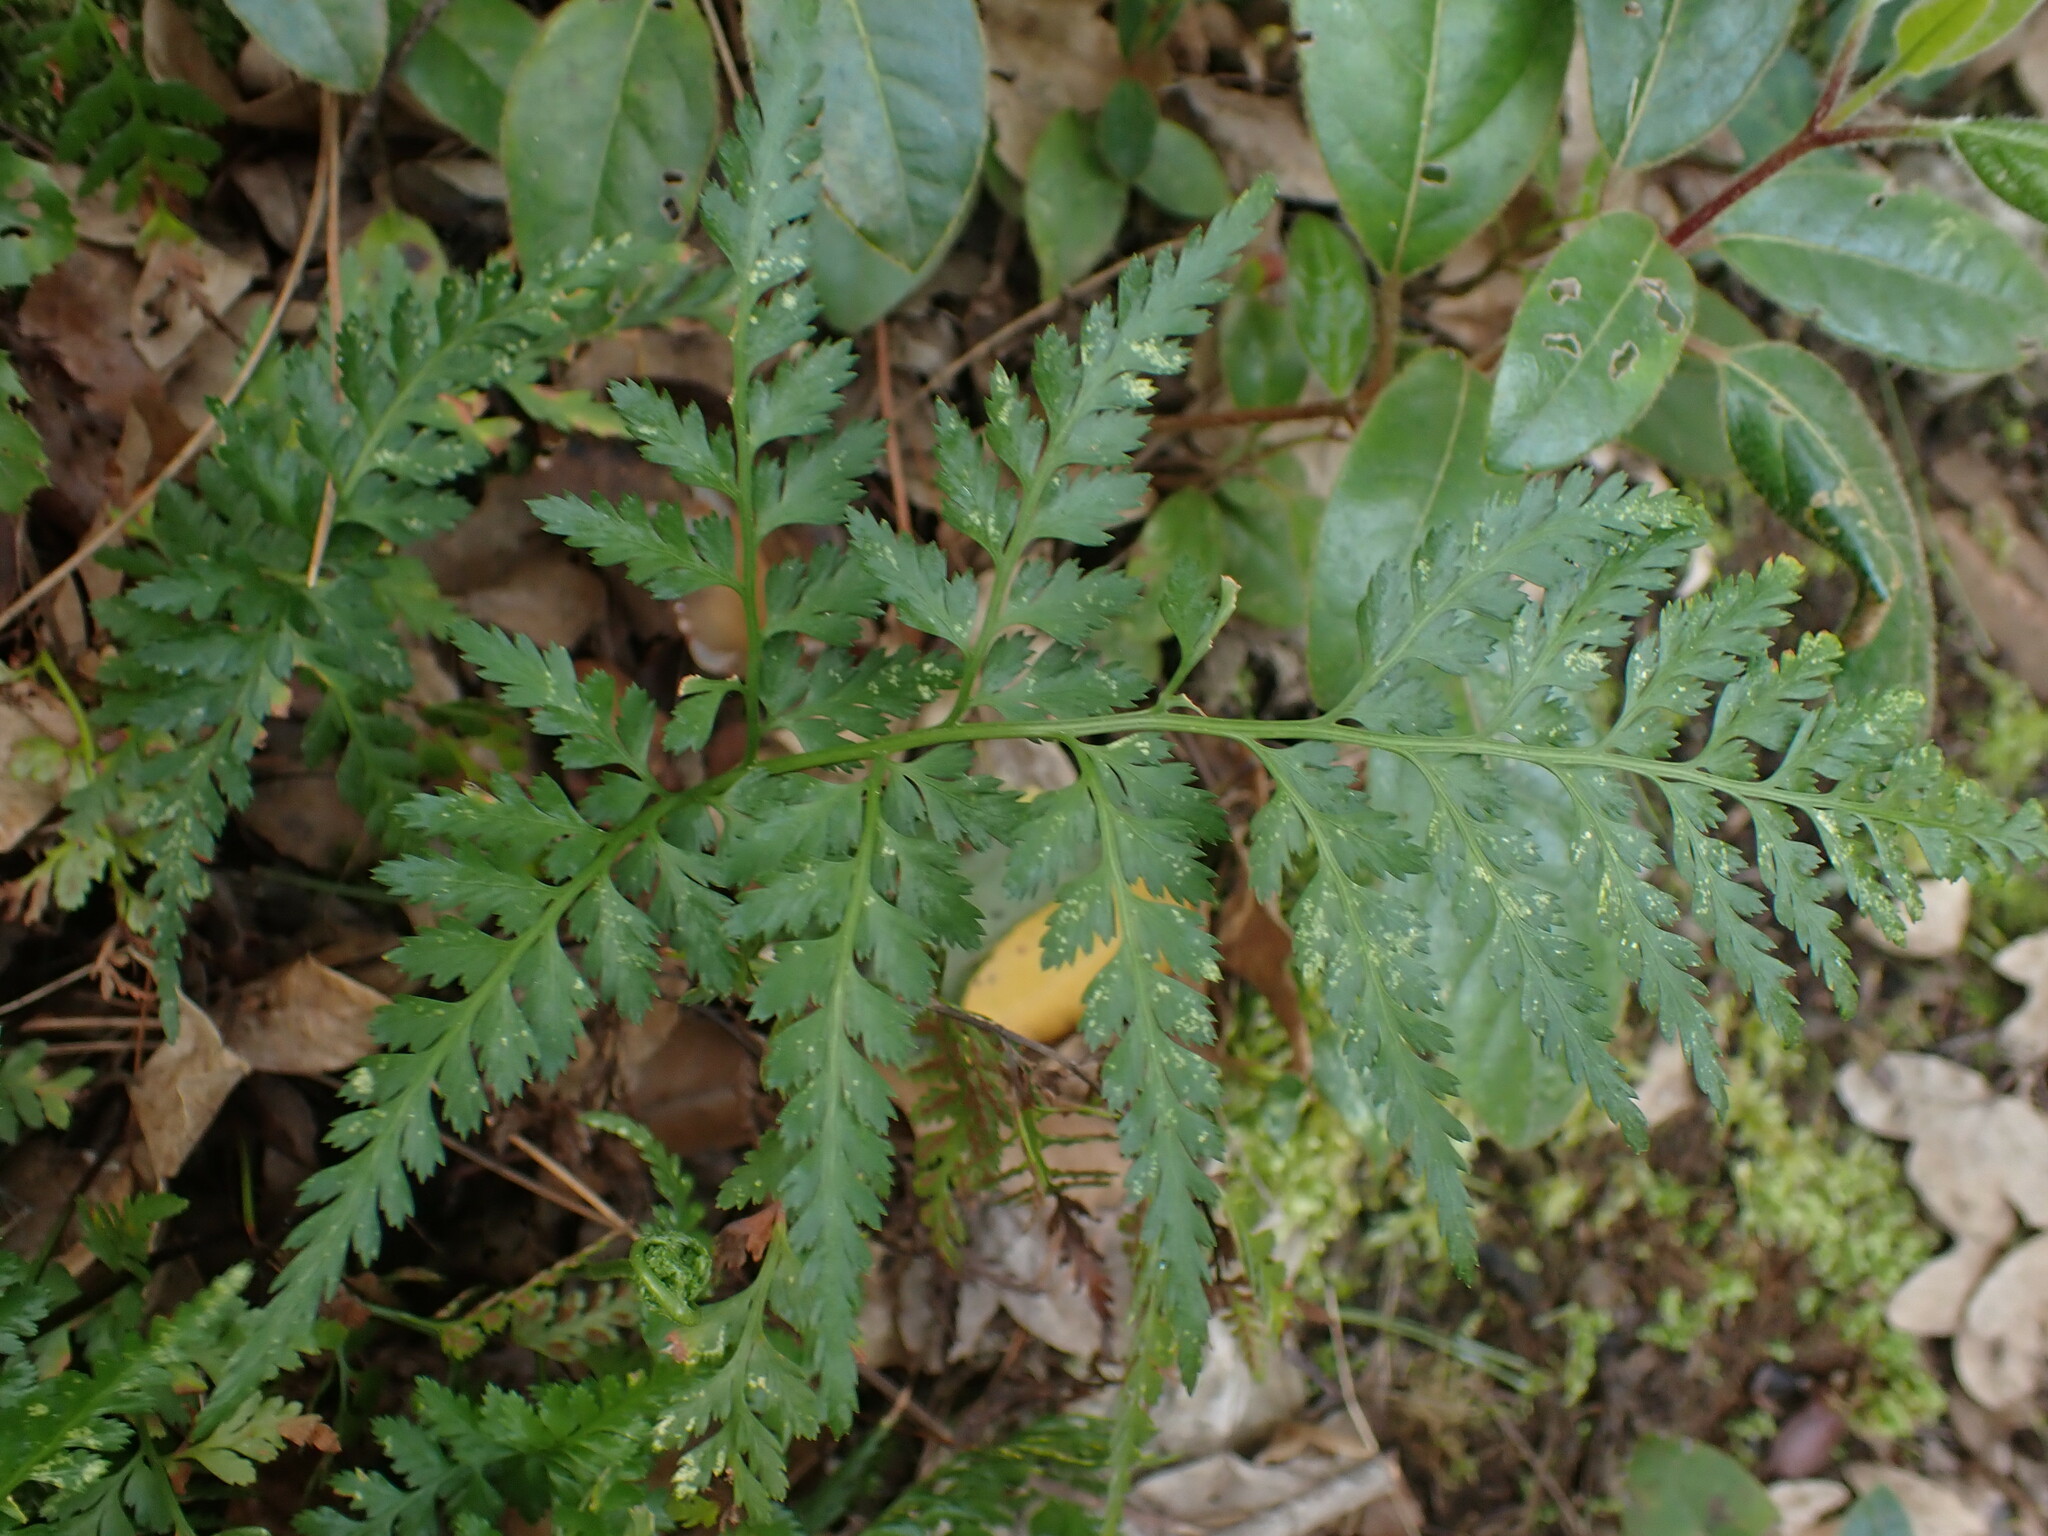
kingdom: Plantae
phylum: Tracheophyta
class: Polypodiopsida
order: Polypodiales
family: Aspleniaceae
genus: Asplenium
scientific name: Asplenium onopteris
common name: Irish spleenwort
